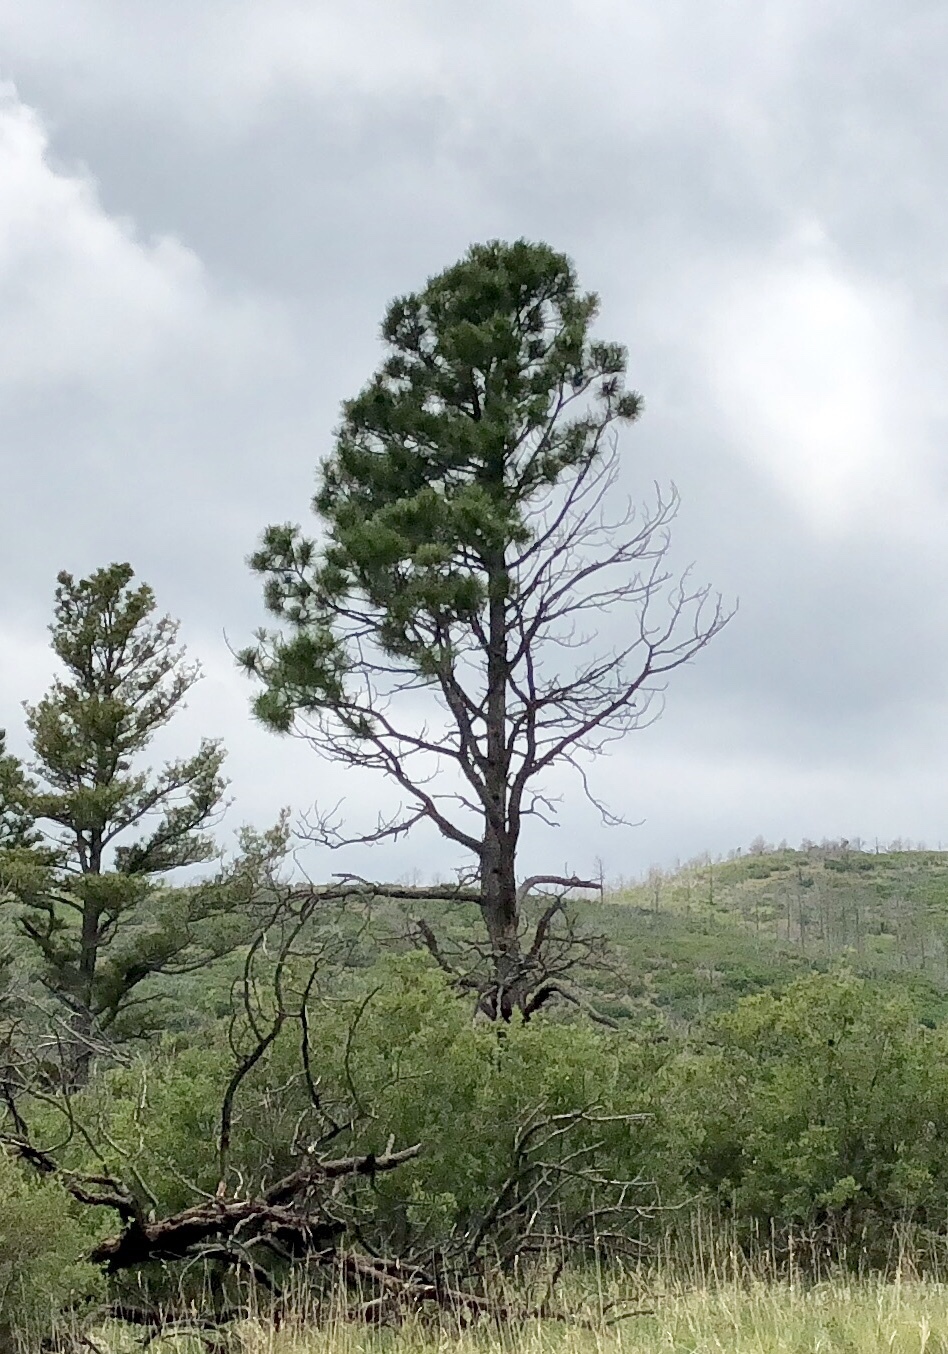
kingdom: Plantae
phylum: Tracheophyta
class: Pinopsida
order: Pinales
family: Pinaceae
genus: Pinus
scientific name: Pinus ponderosa
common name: Western yellow-pine
